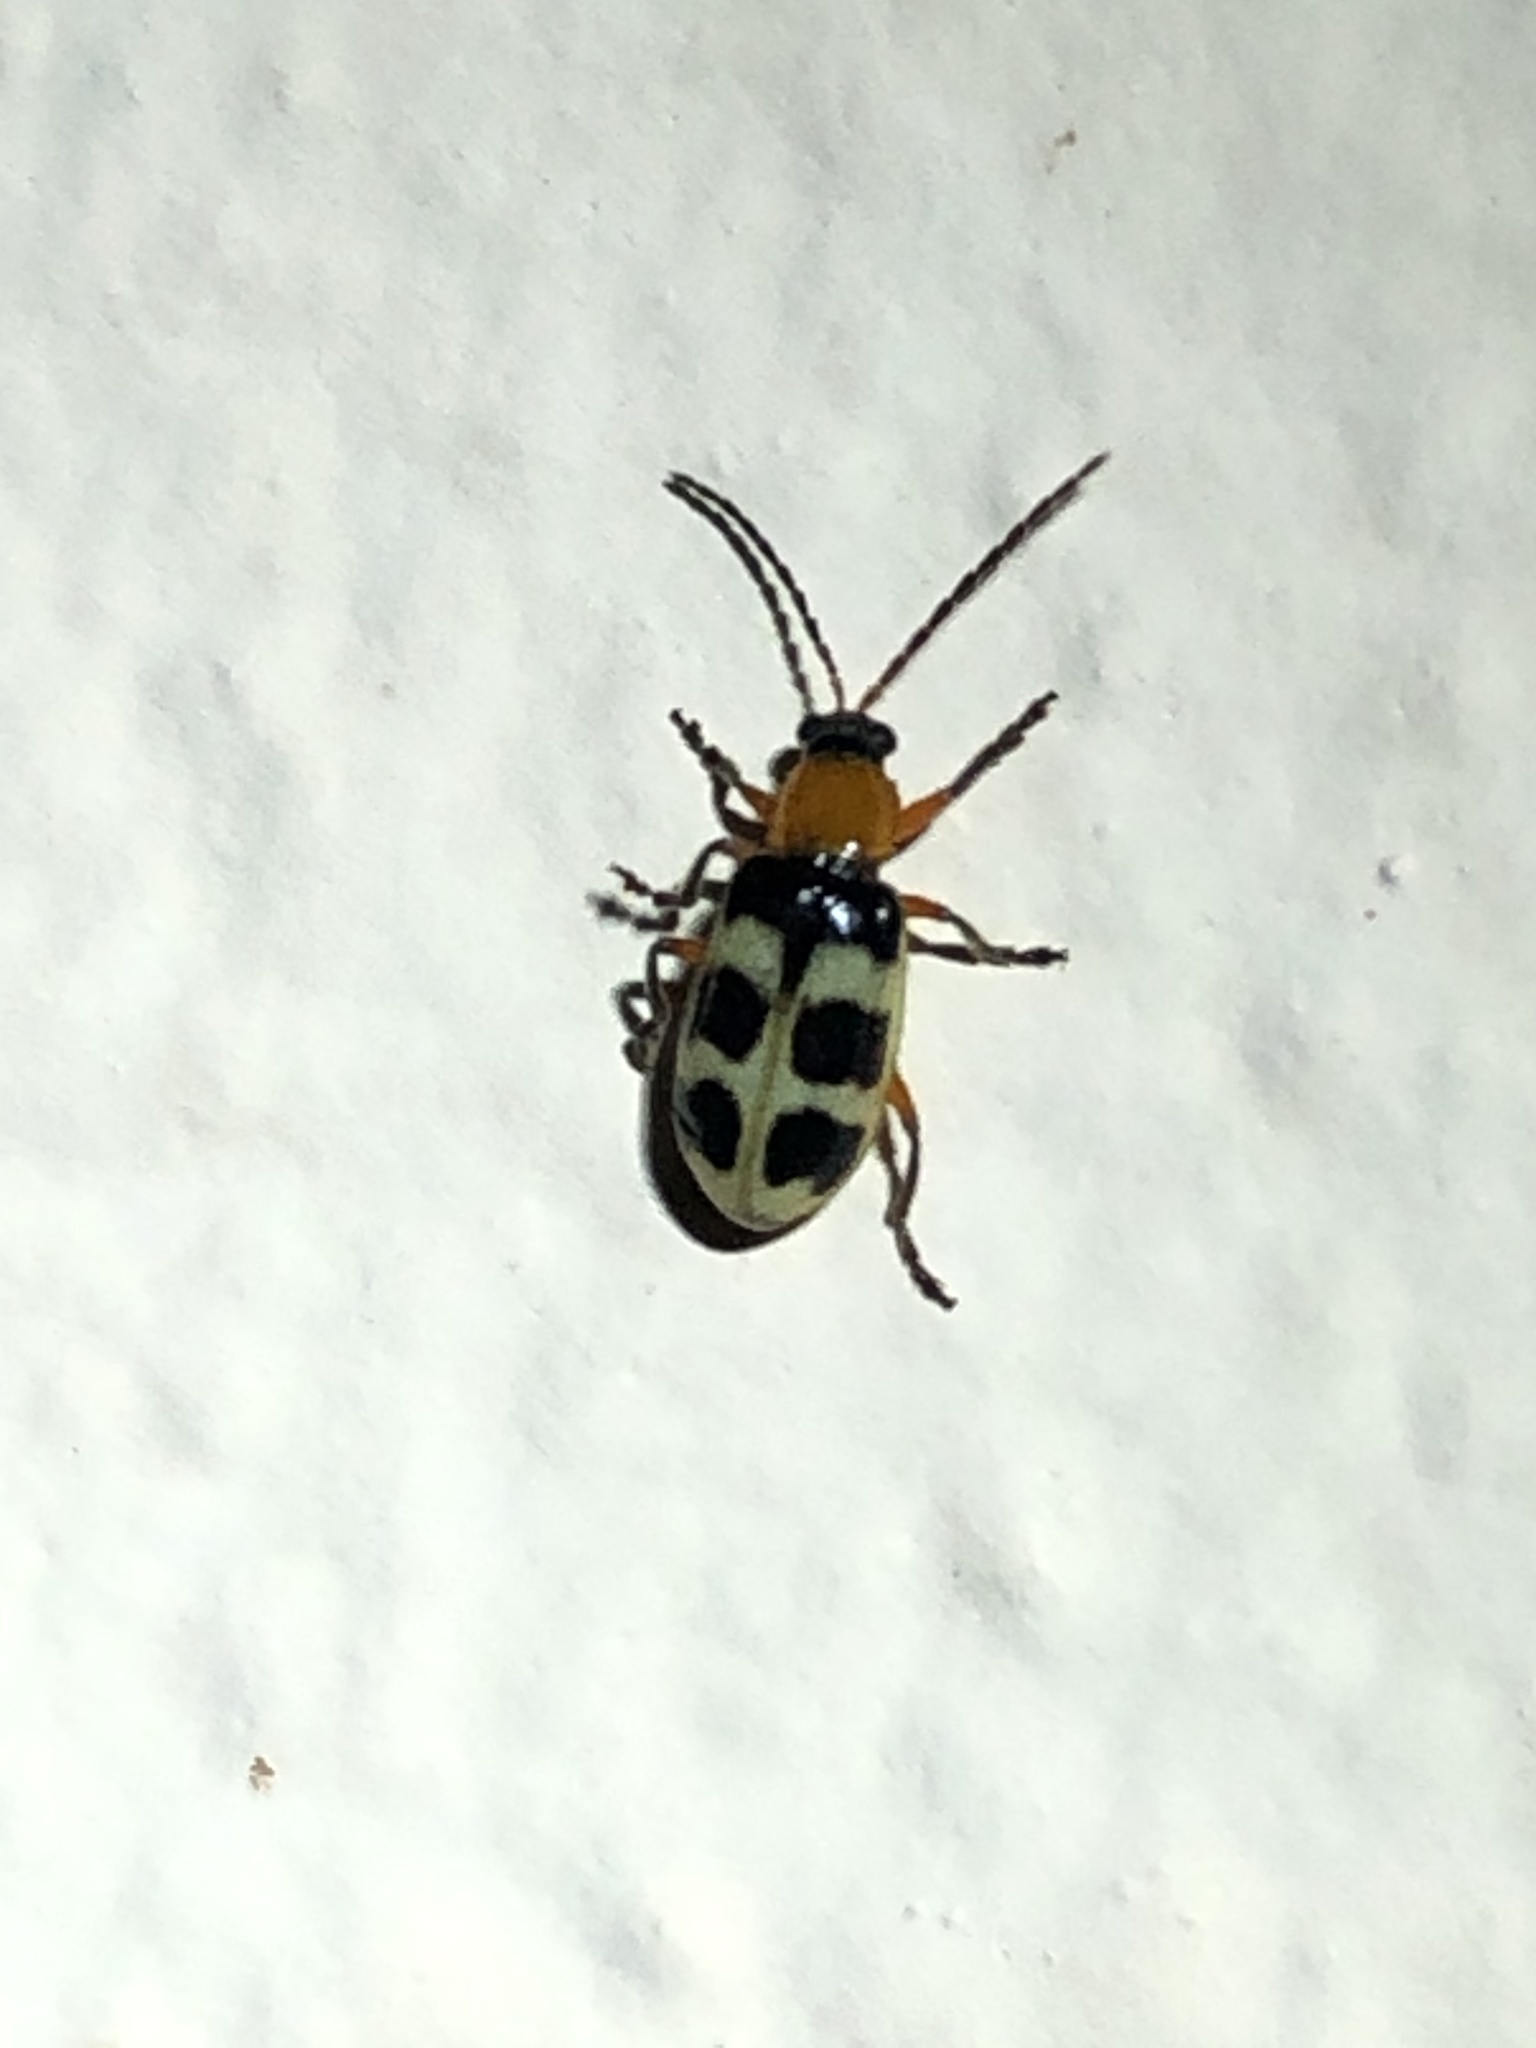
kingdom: Animalia
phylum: Arthropoda
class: Insecta
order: Coleoptera
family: Chrysomelidae
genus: Paranapiacaba
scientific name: Paranapiacaba tricincta
